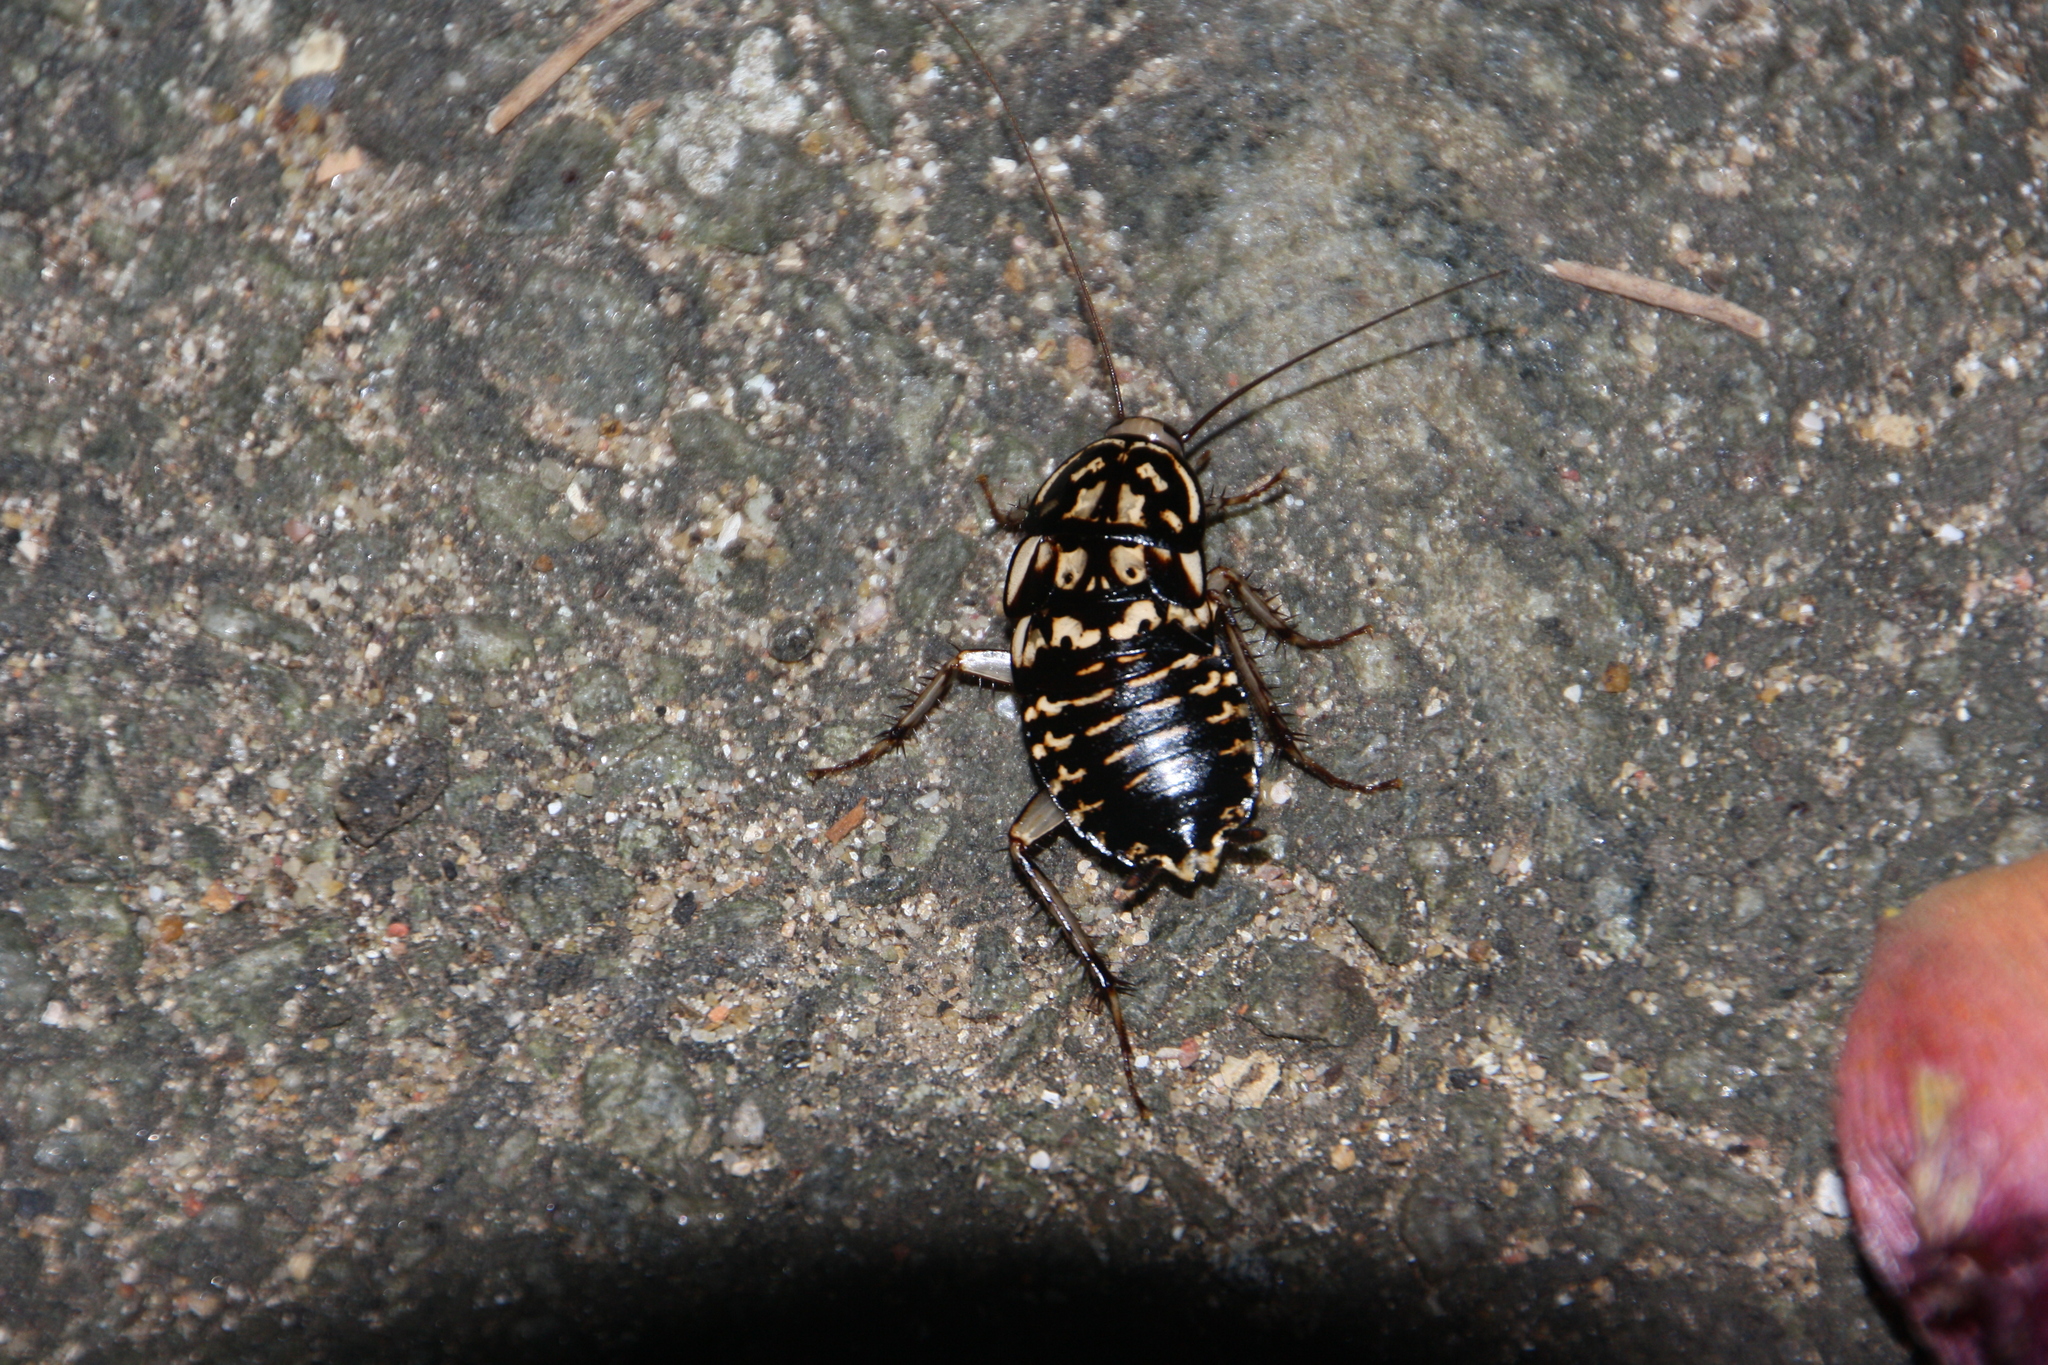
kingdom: Animalia
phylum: Arthropoda
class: Insecta
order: Blattodea
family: Blattidae
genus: Neostylopyga
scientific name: Neostylopyga rhombifolia
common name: Harlequin cockroach
